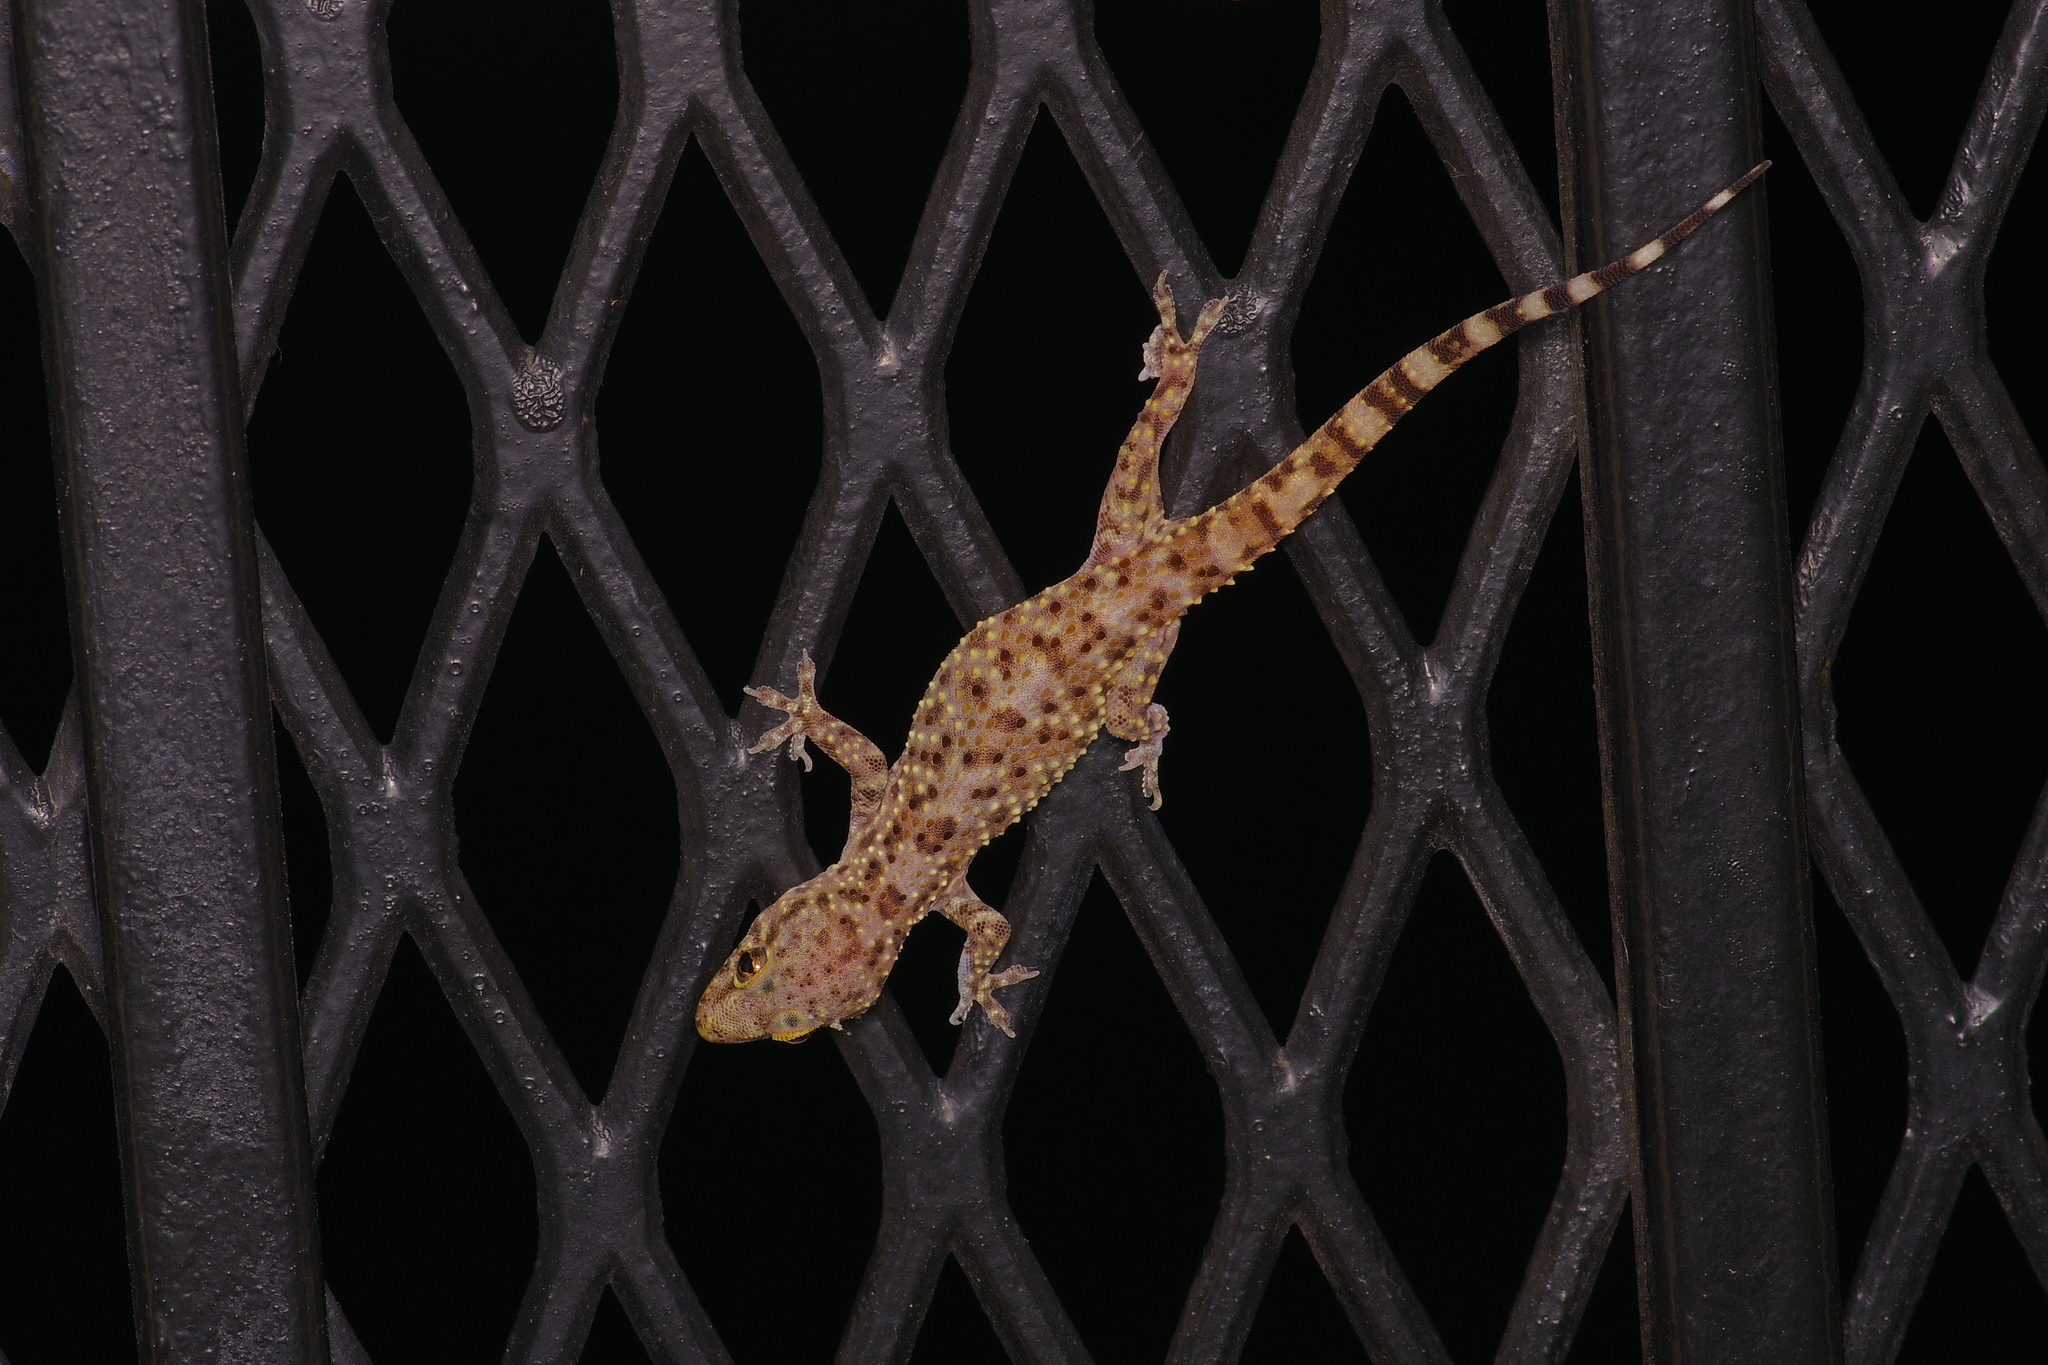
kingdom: Animalia
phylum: Chordata
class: Squamata
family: Gekkonidae
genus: Hemidactylus
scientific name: Hemidactylus turcicus
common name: Turkish gecko
